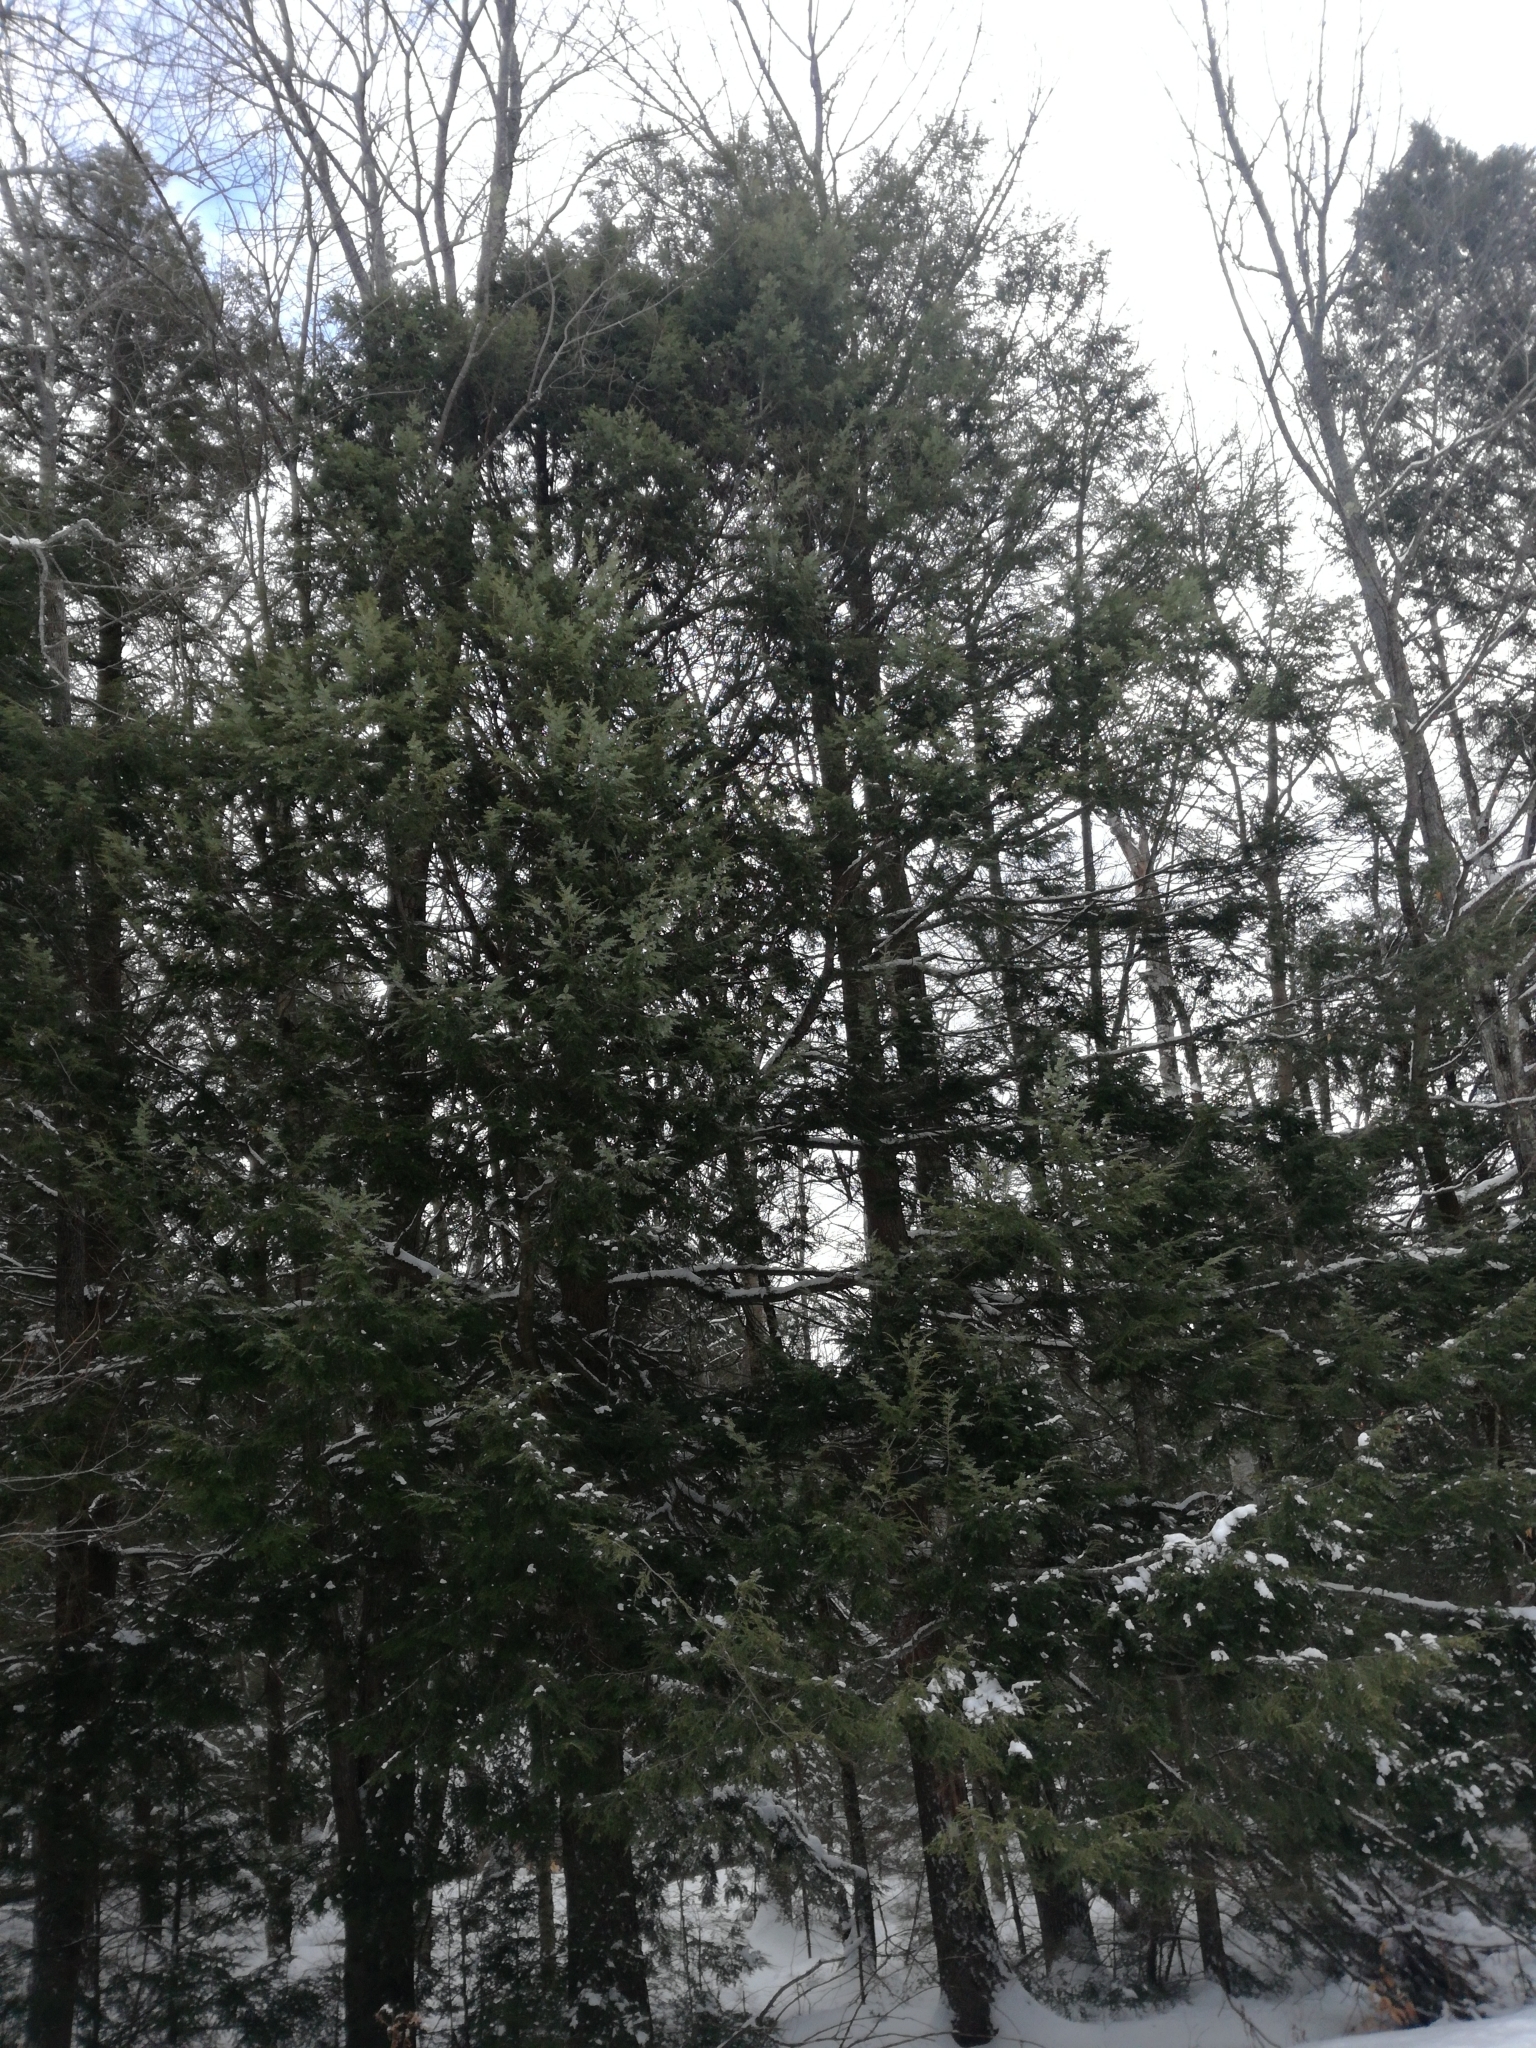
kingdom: Plantae
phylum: Tracheophyta
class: Pinopsida
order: Pinales
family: Pinaceae
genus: Tsuga
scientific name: Tsuga canadensis
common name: Eastern hemlock
